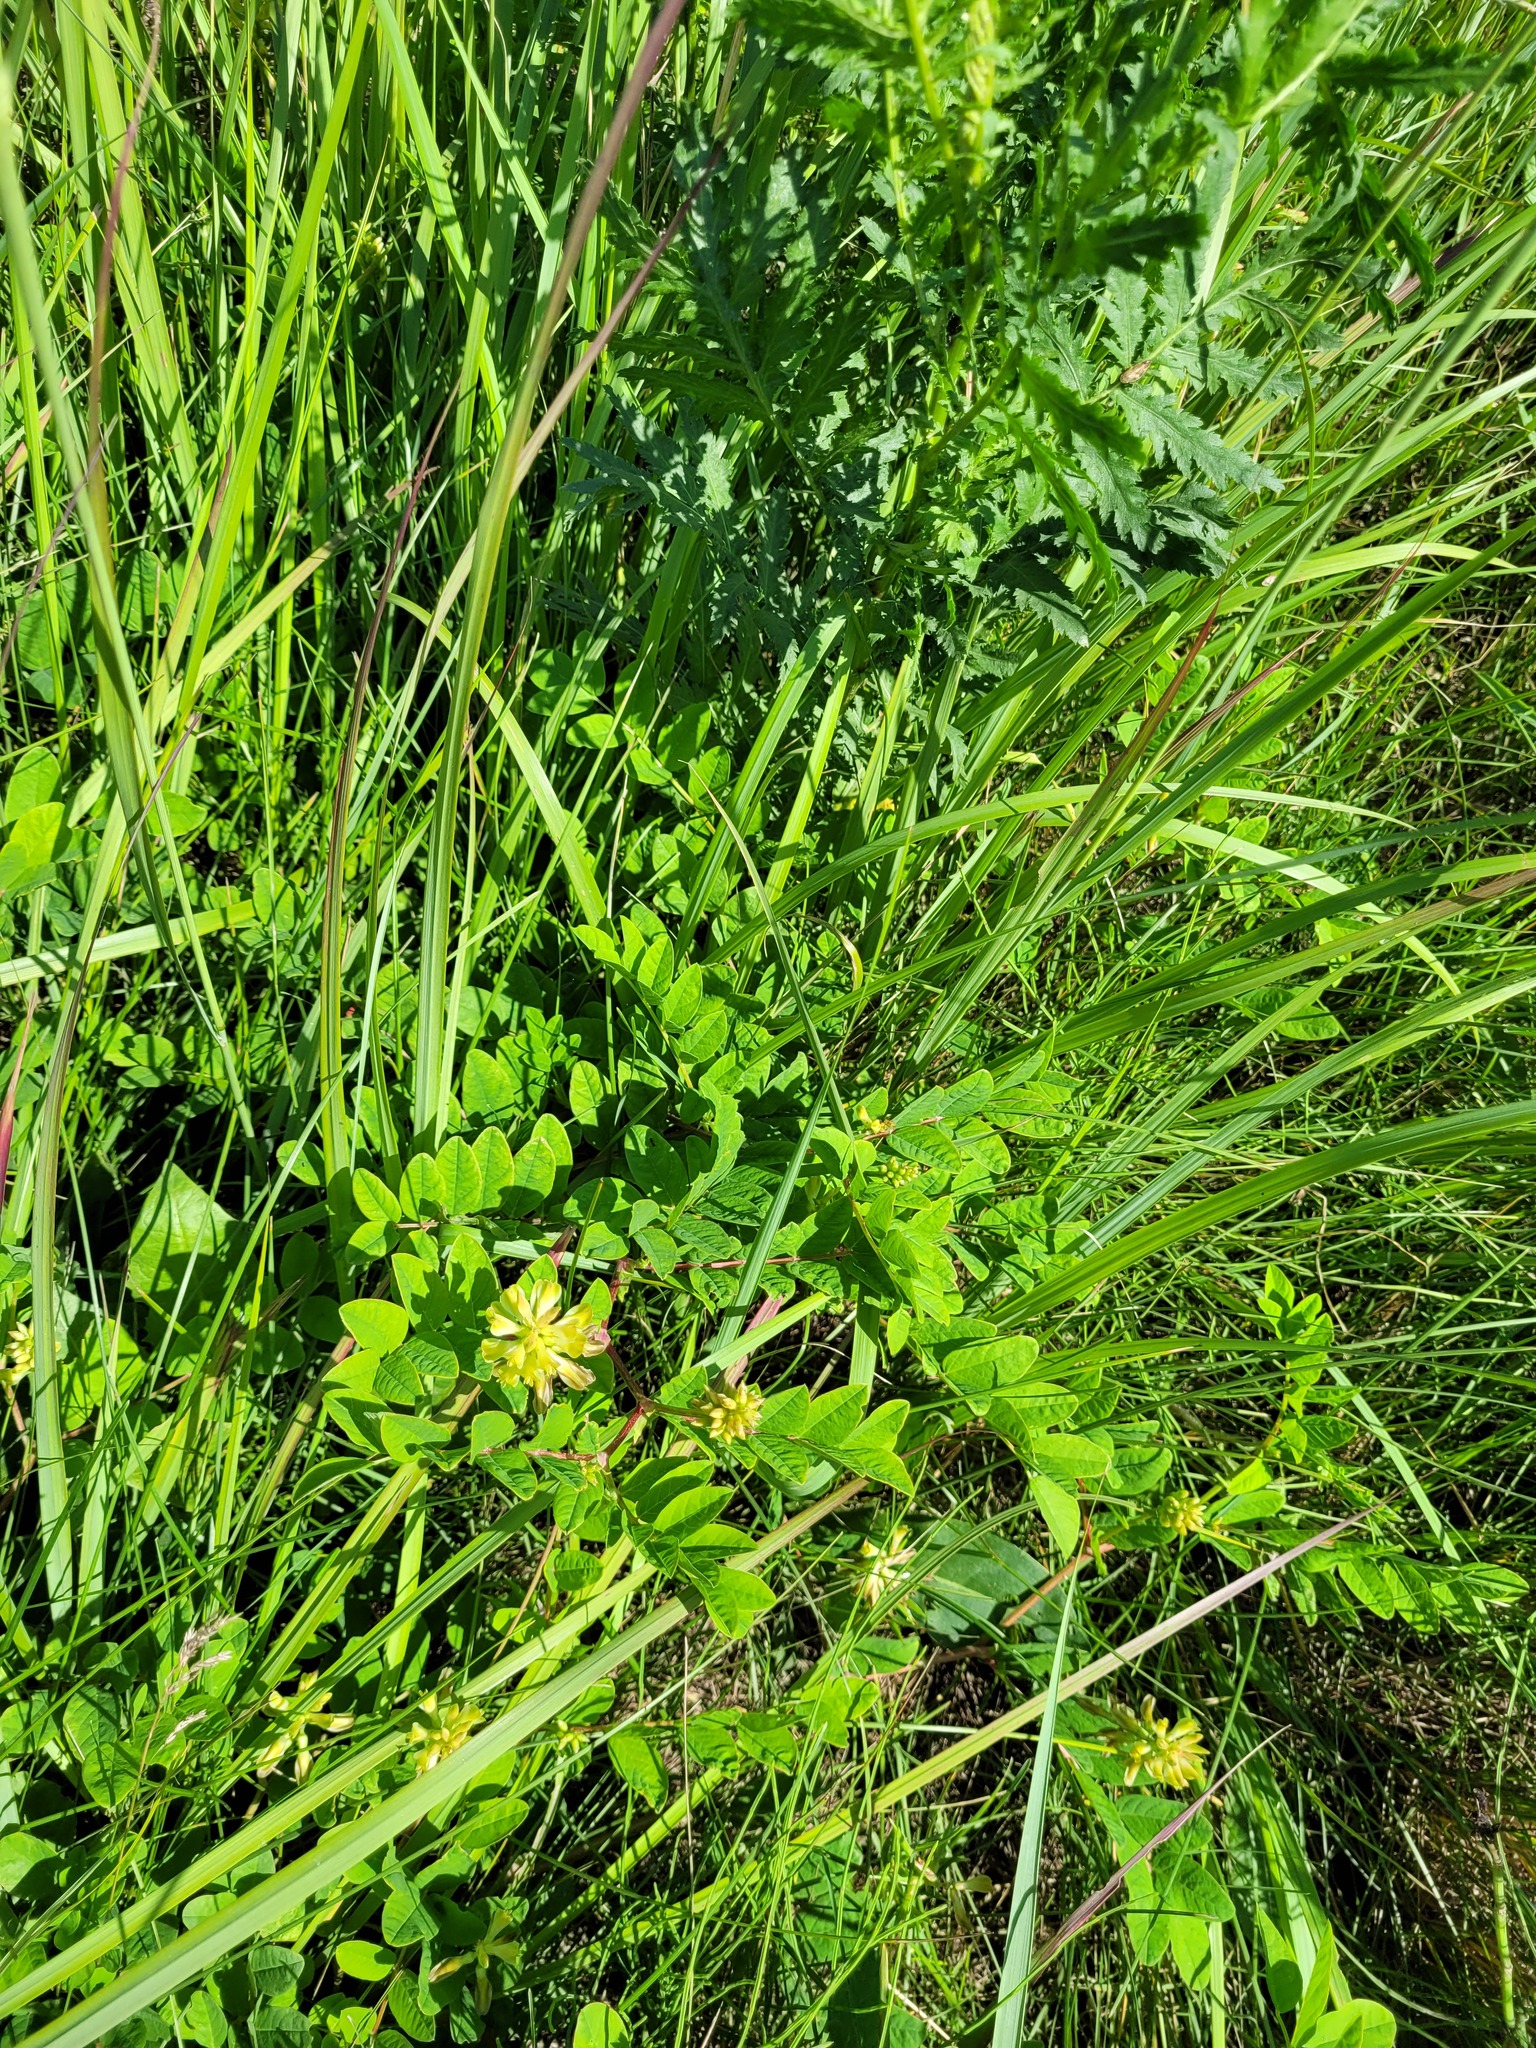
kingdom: Plantae
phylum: Tracheophyta
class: Magnoliopsida
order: Fabales
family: Fabaceae
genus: Astragalus
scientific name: Astragalus glycyphyllos
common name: Wild liquorice
